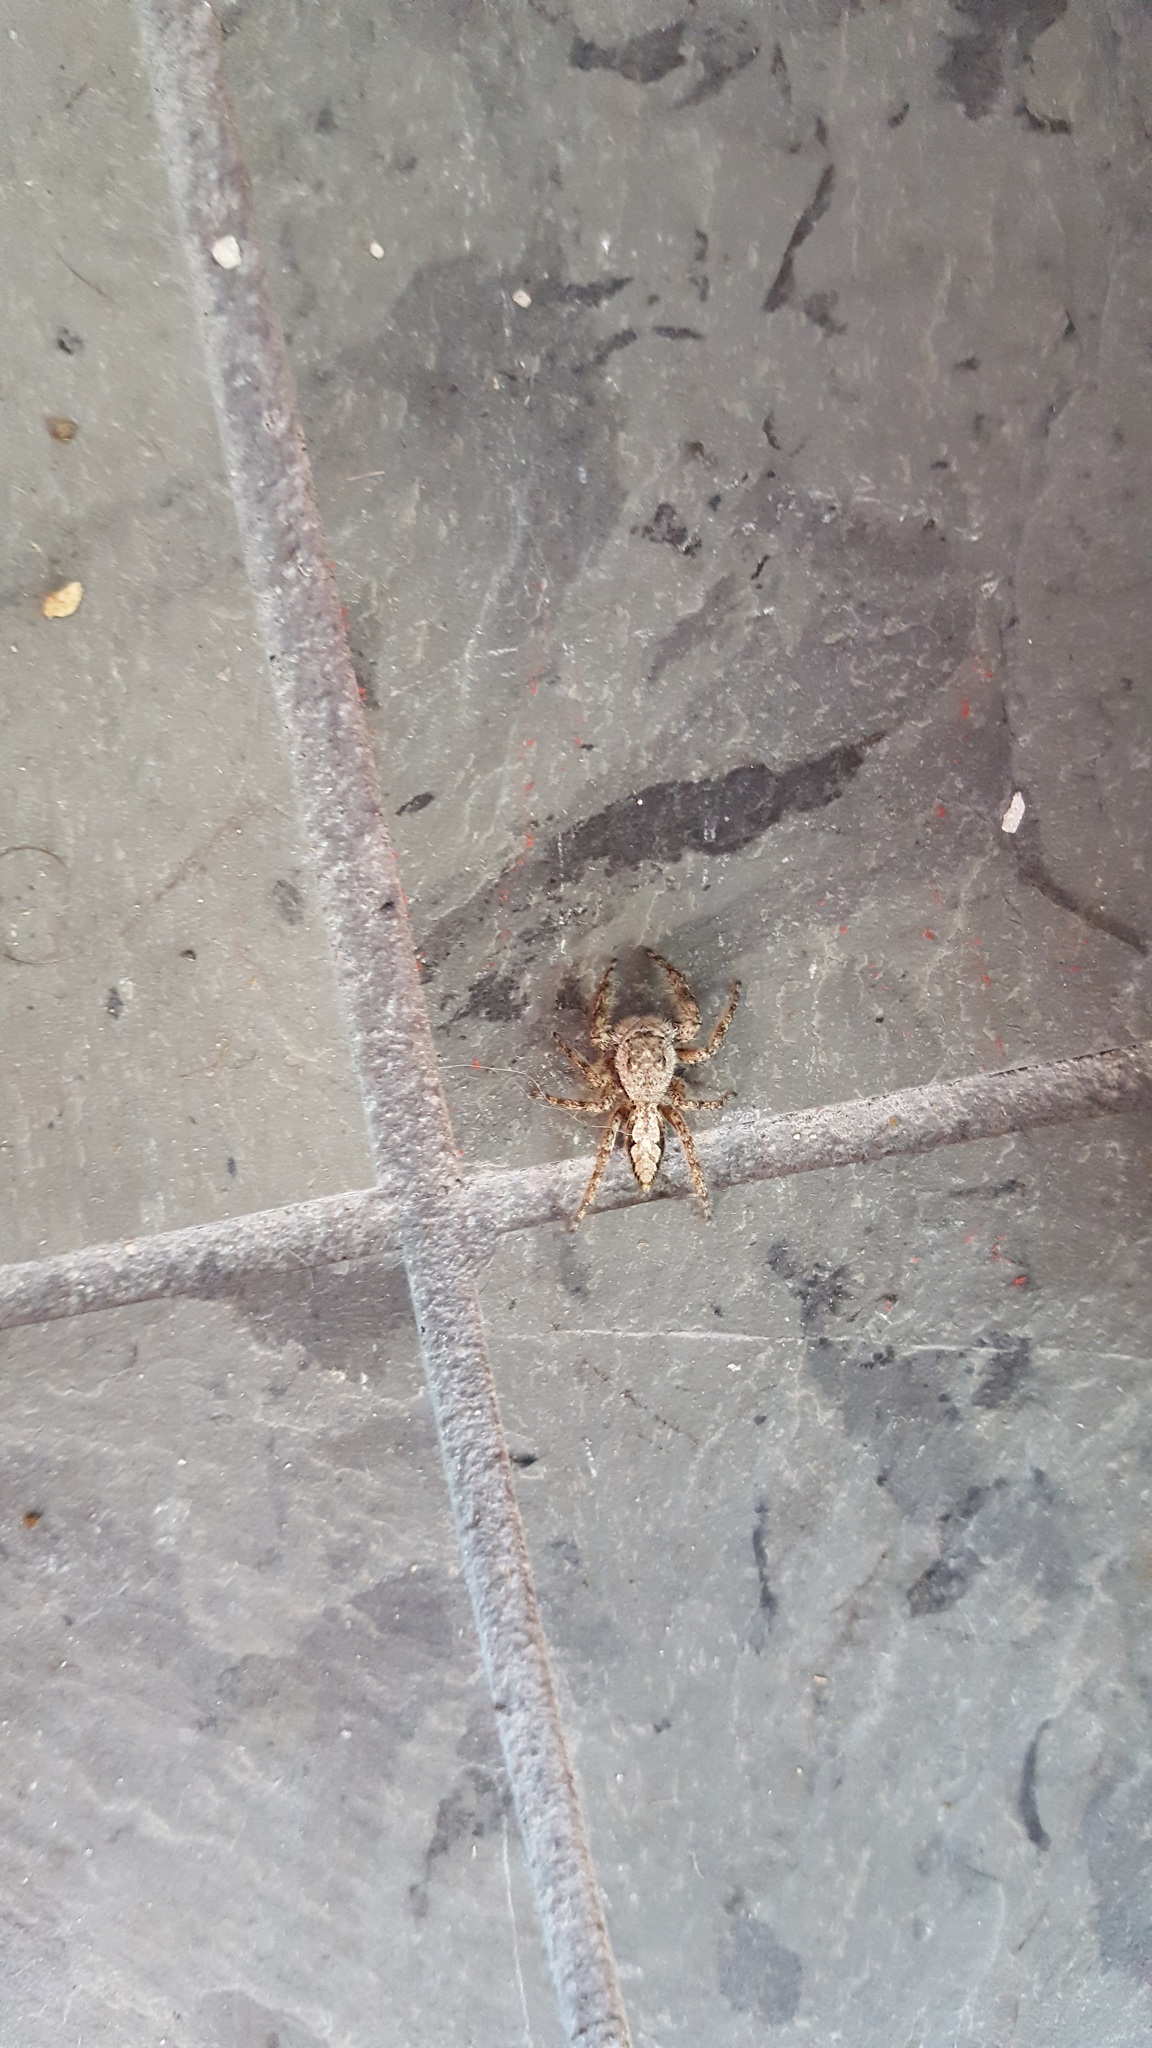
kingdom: Animalia
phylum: Arthropoda
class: Arachnida
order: Araneae
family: Salticidae
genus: Platycryptus
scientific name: Platycryptus undatus
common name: Tan jumping spider
